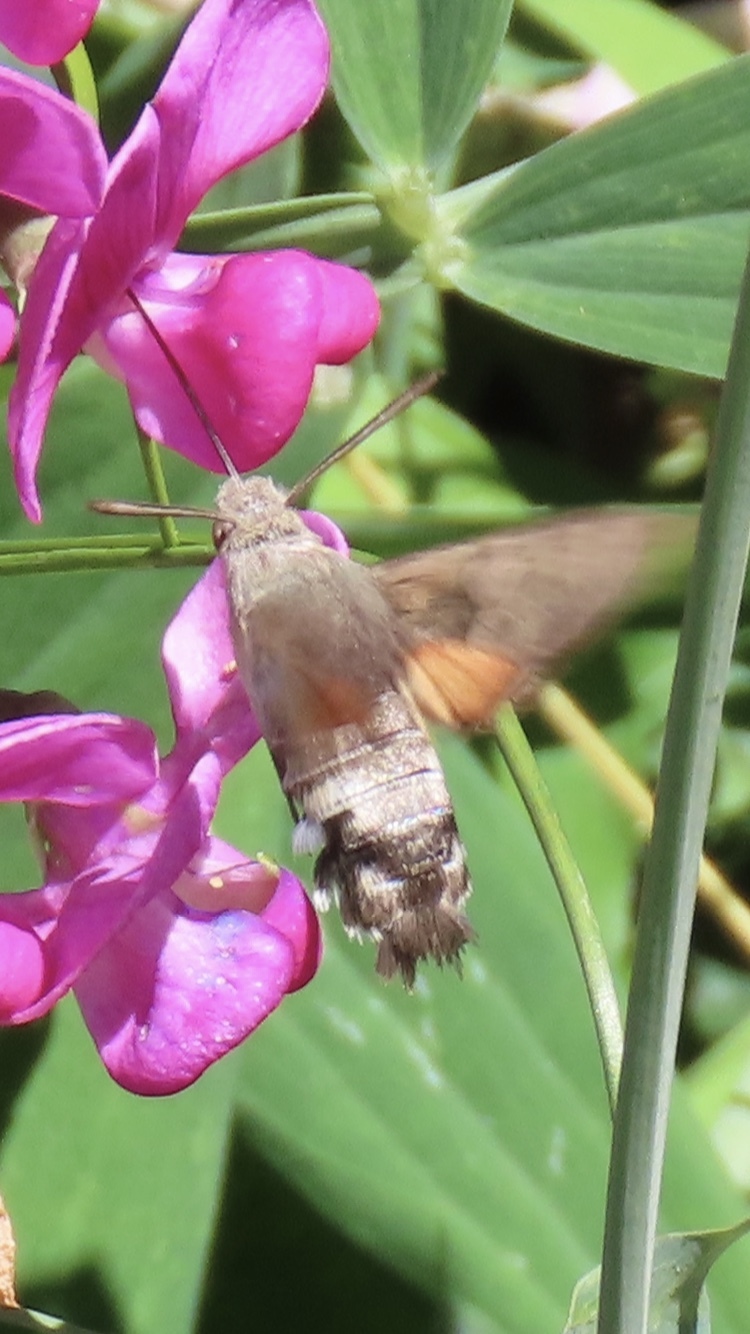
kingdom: Animalia
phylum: Arthropoda
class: Insecta
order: Lepidoptera
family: Sphingidae
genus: Macroglossum
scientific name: Macroglossum stellatarum
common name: Humming-bird hawk-moth
